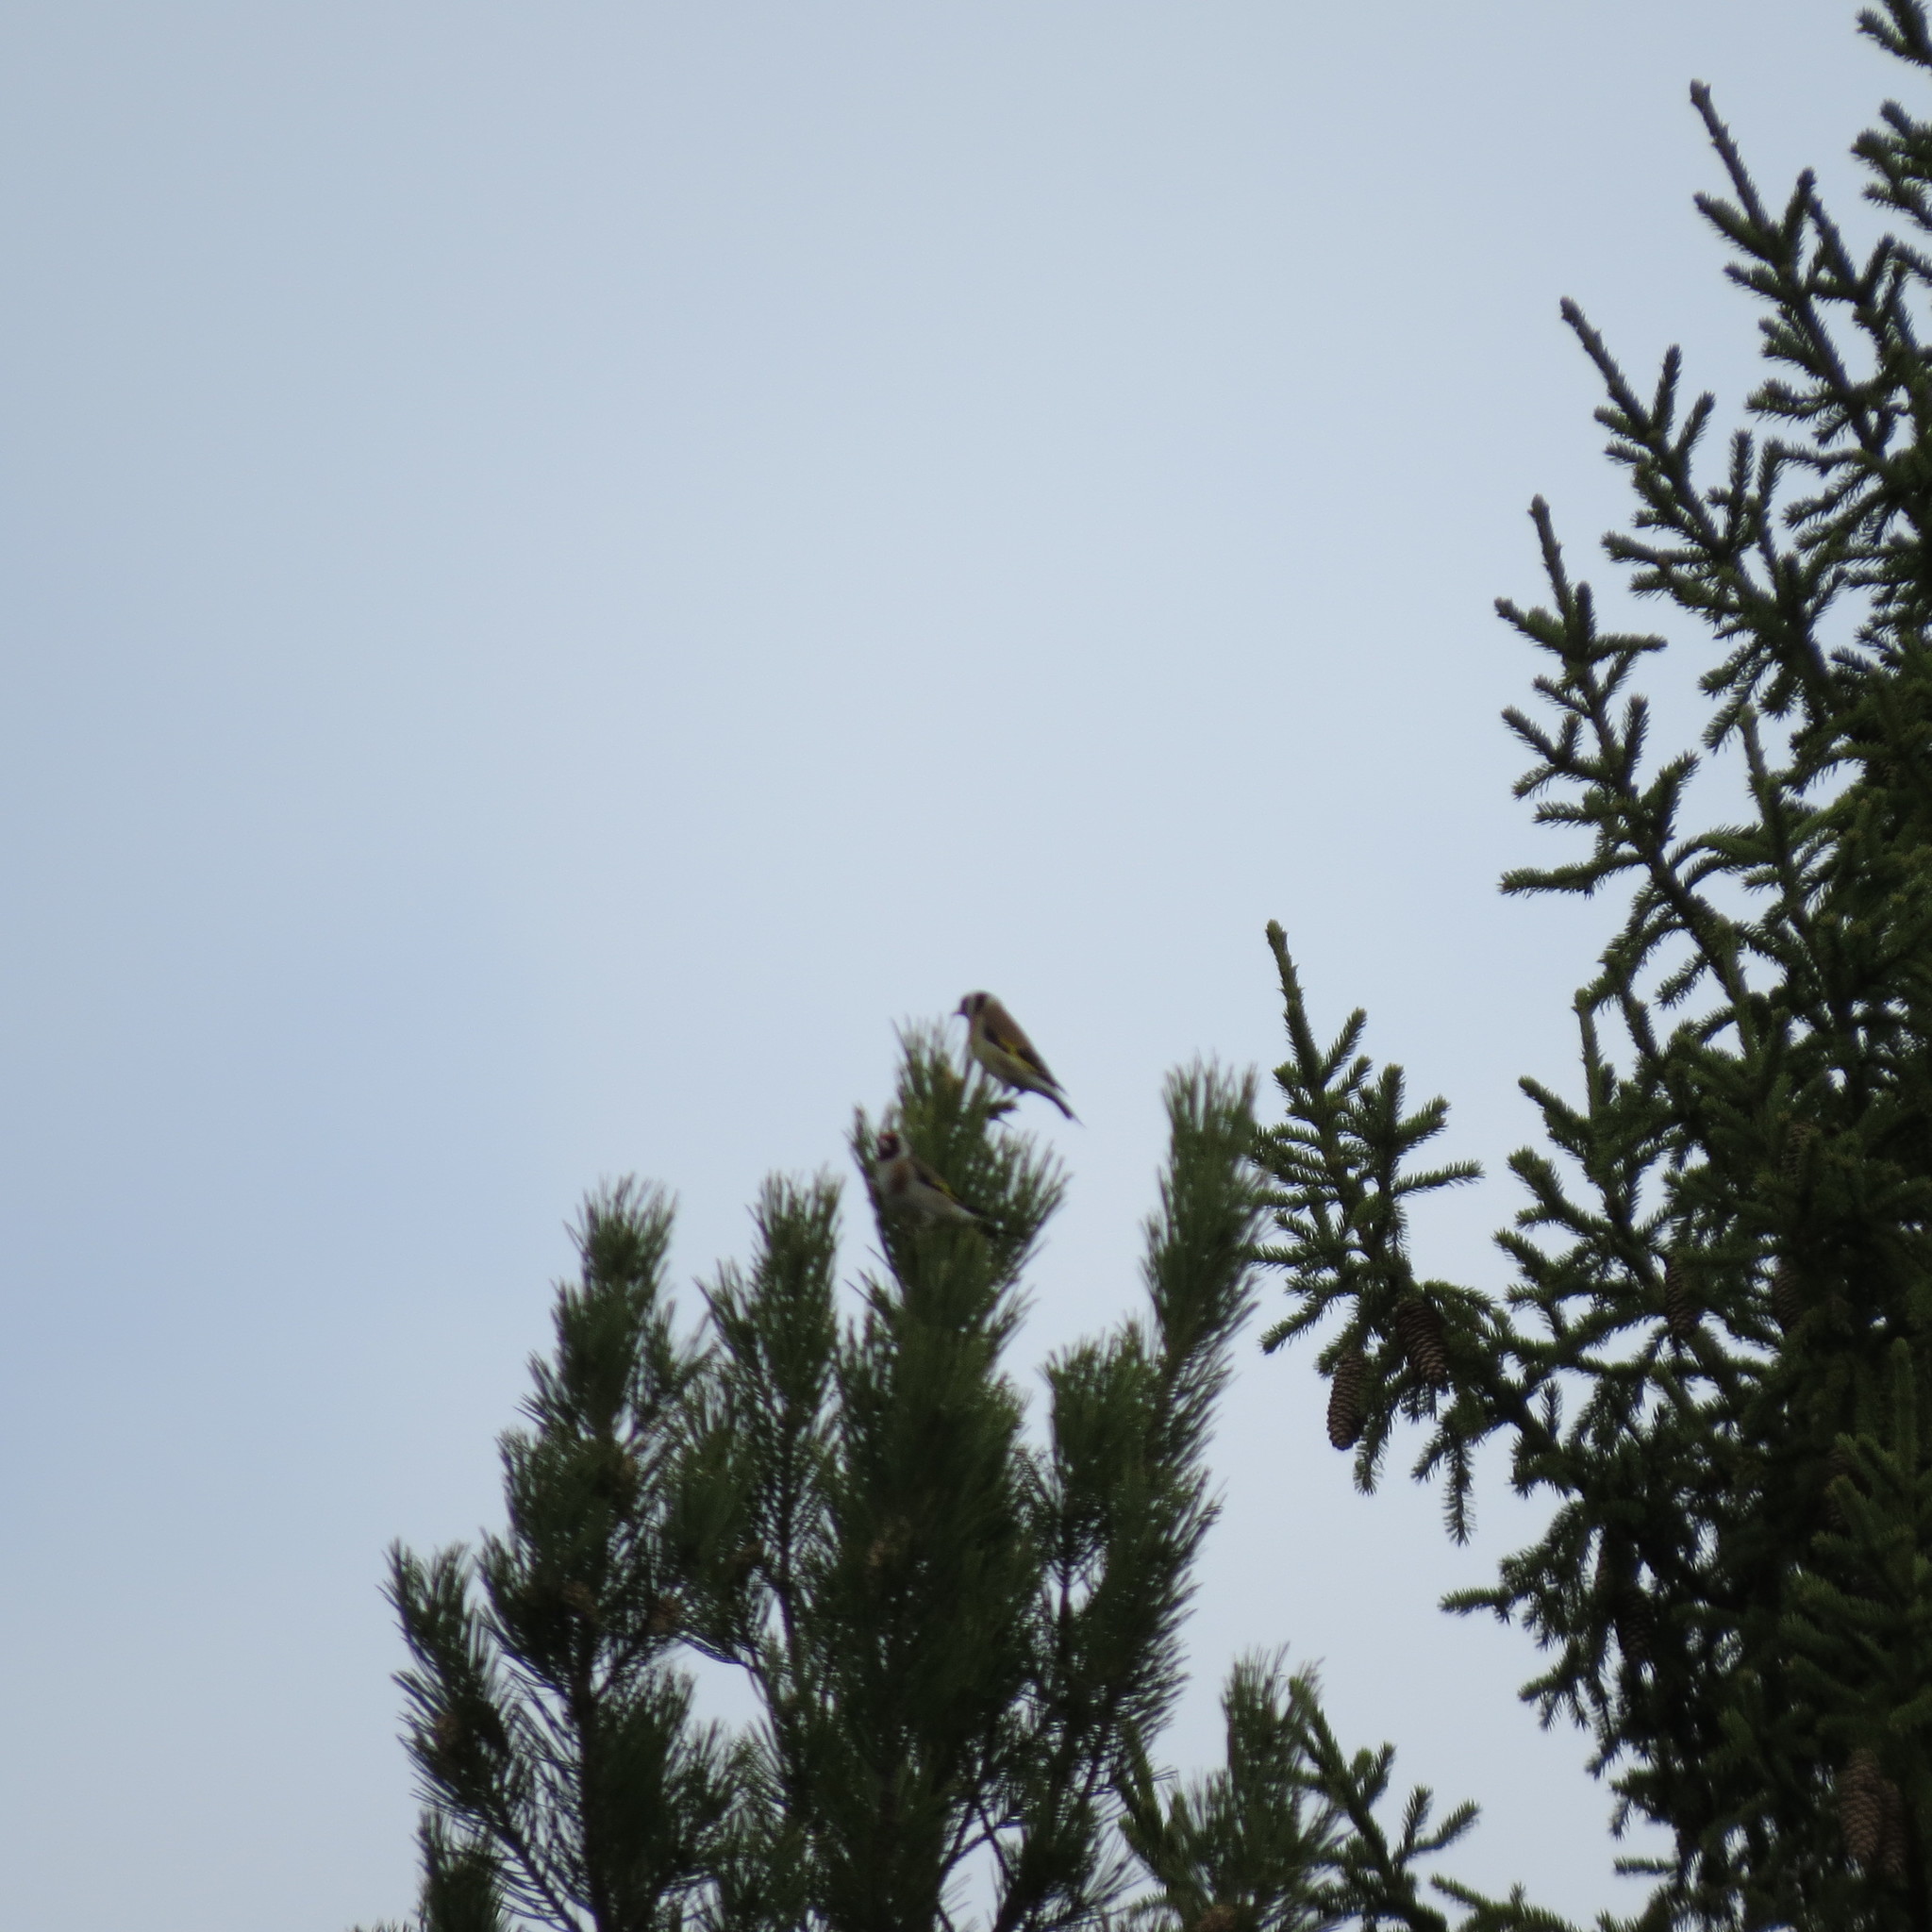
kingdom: Animalia
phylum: Chordata
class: Aves
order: Passeriformes
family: Fringillidae
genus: Carduelis
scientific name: Carduelis carduelis
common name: European goldfinch
